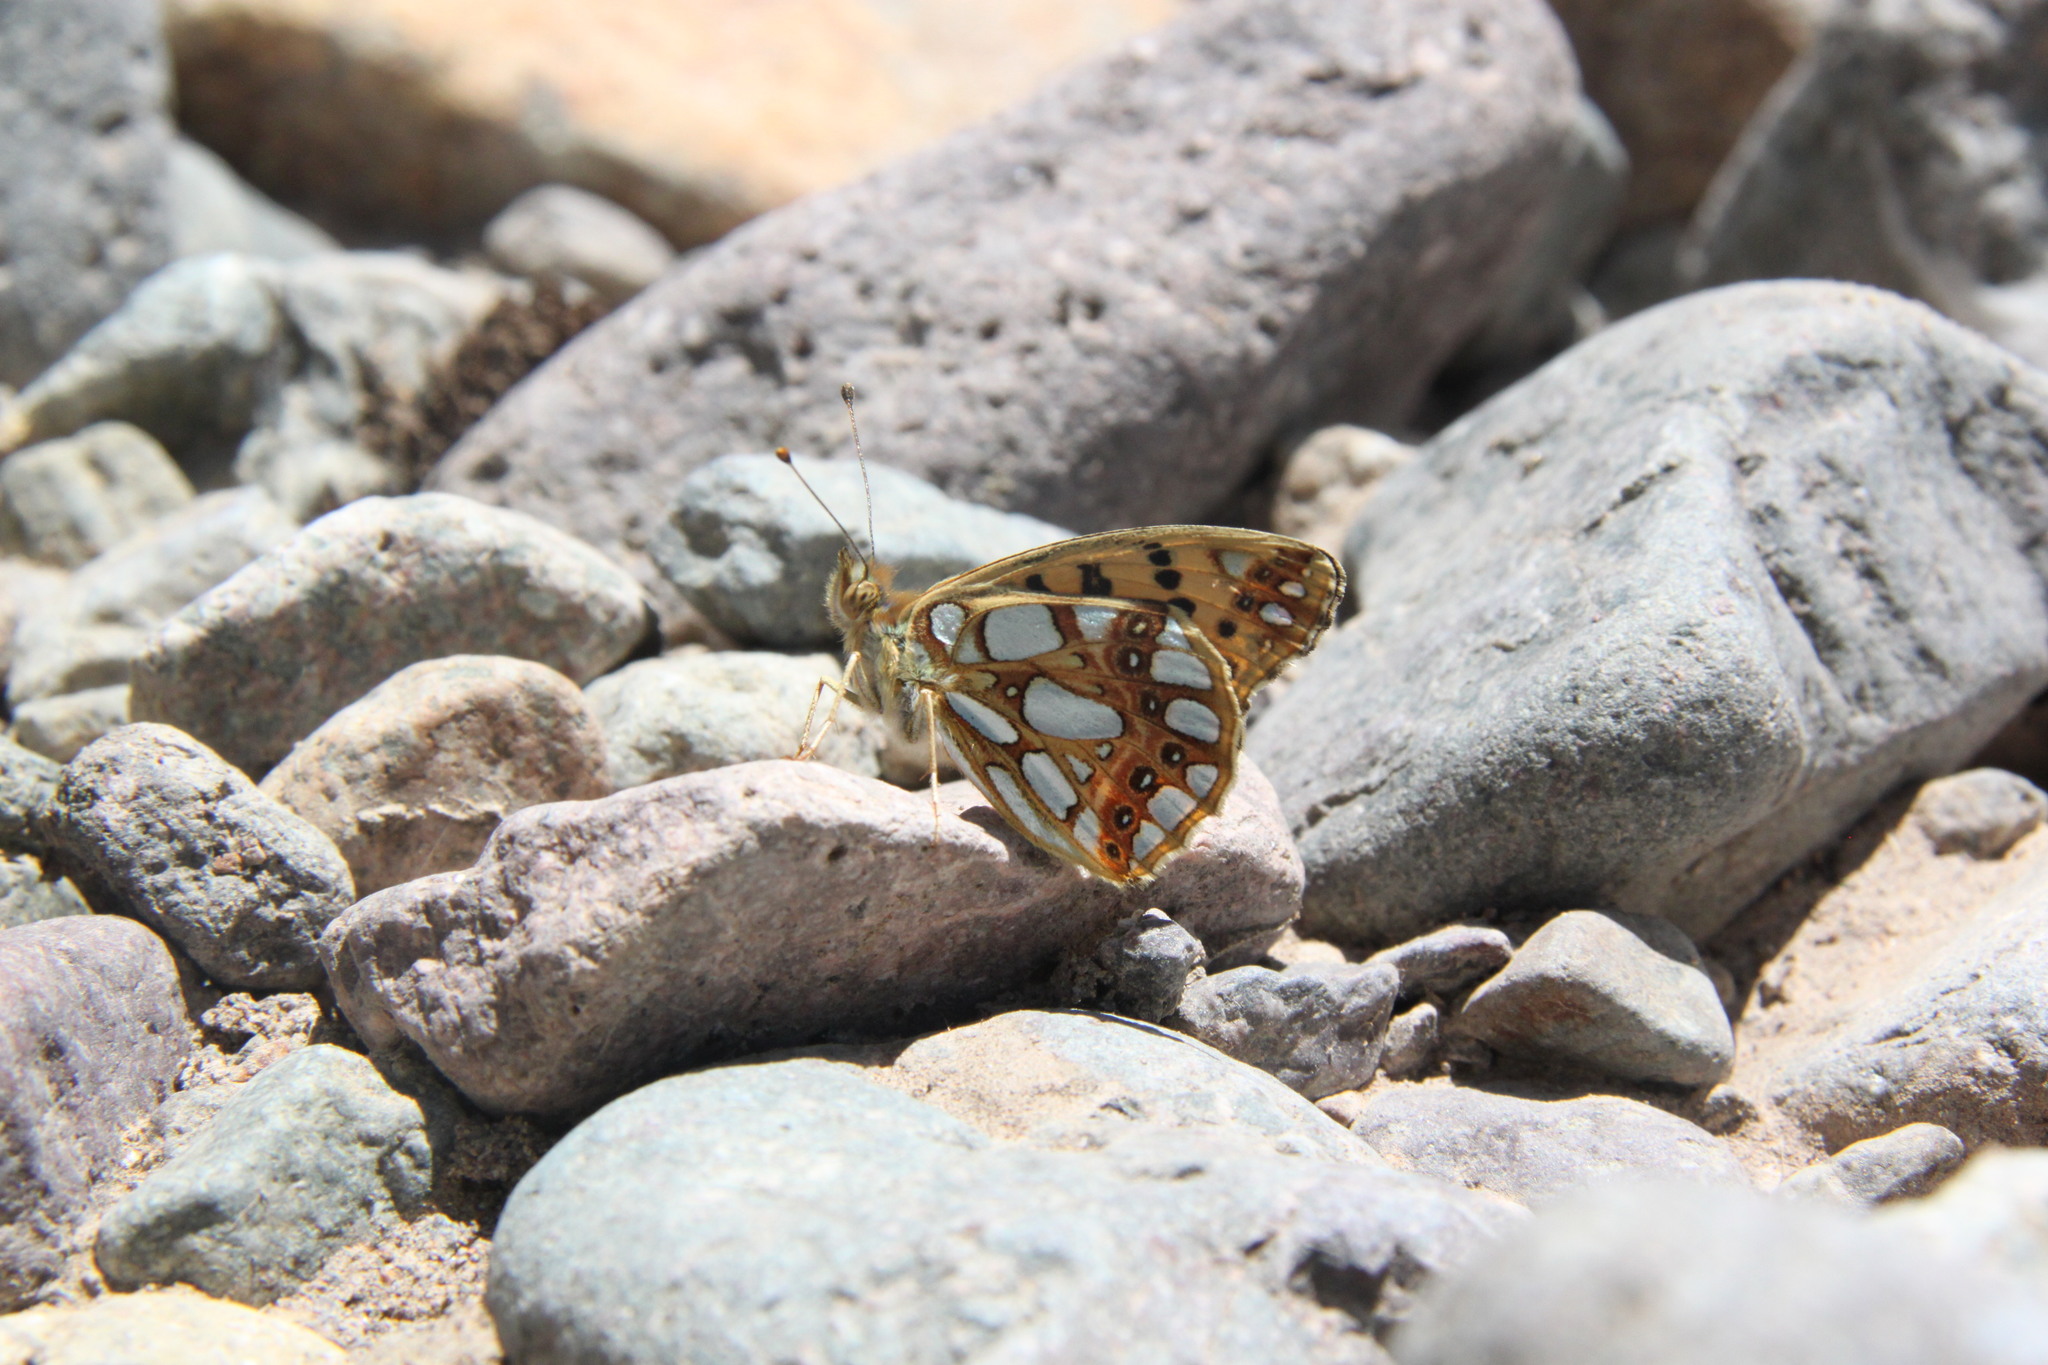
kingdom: Animalia
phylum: Arthropoda
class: Insecta
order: Lepidoptera
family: Nymphalidae
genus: Issoria
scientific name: Issoria lathonia
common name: Queen of spain fritillary
